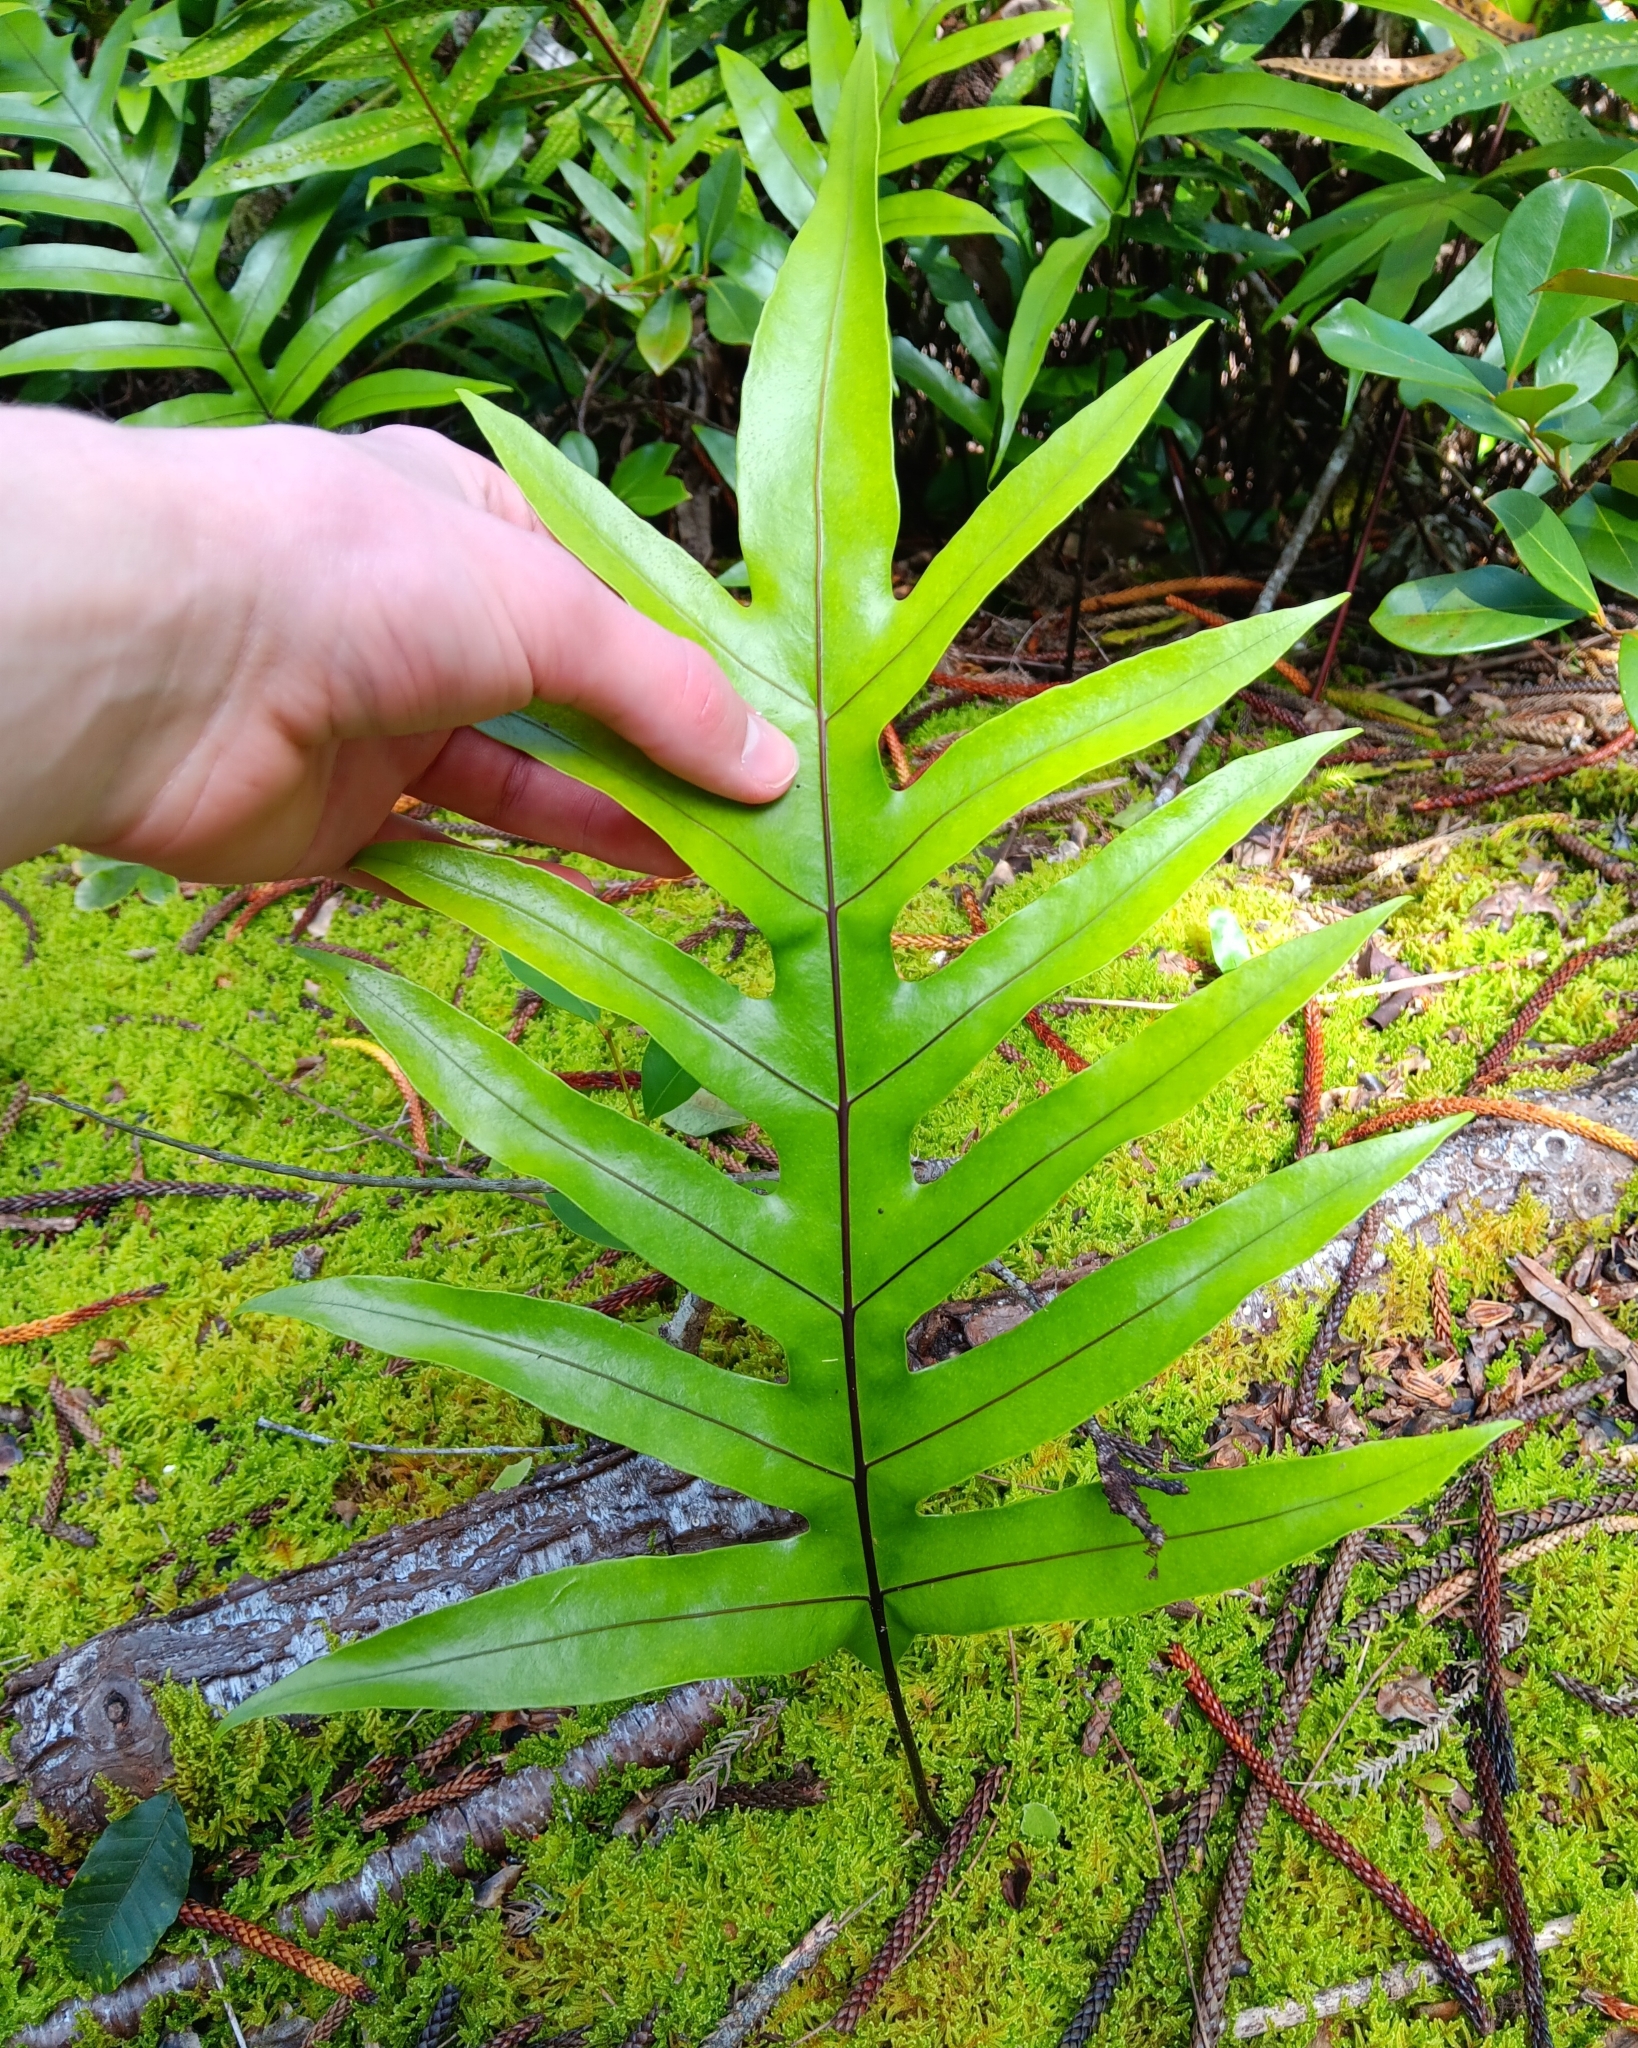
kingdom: Plantae
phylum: Tracheophyta
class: Polypodiopsida
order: Polypodiales
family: Polypodiaceae
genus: Microsorum
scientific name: Microsorum grossum
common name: Musk fern
